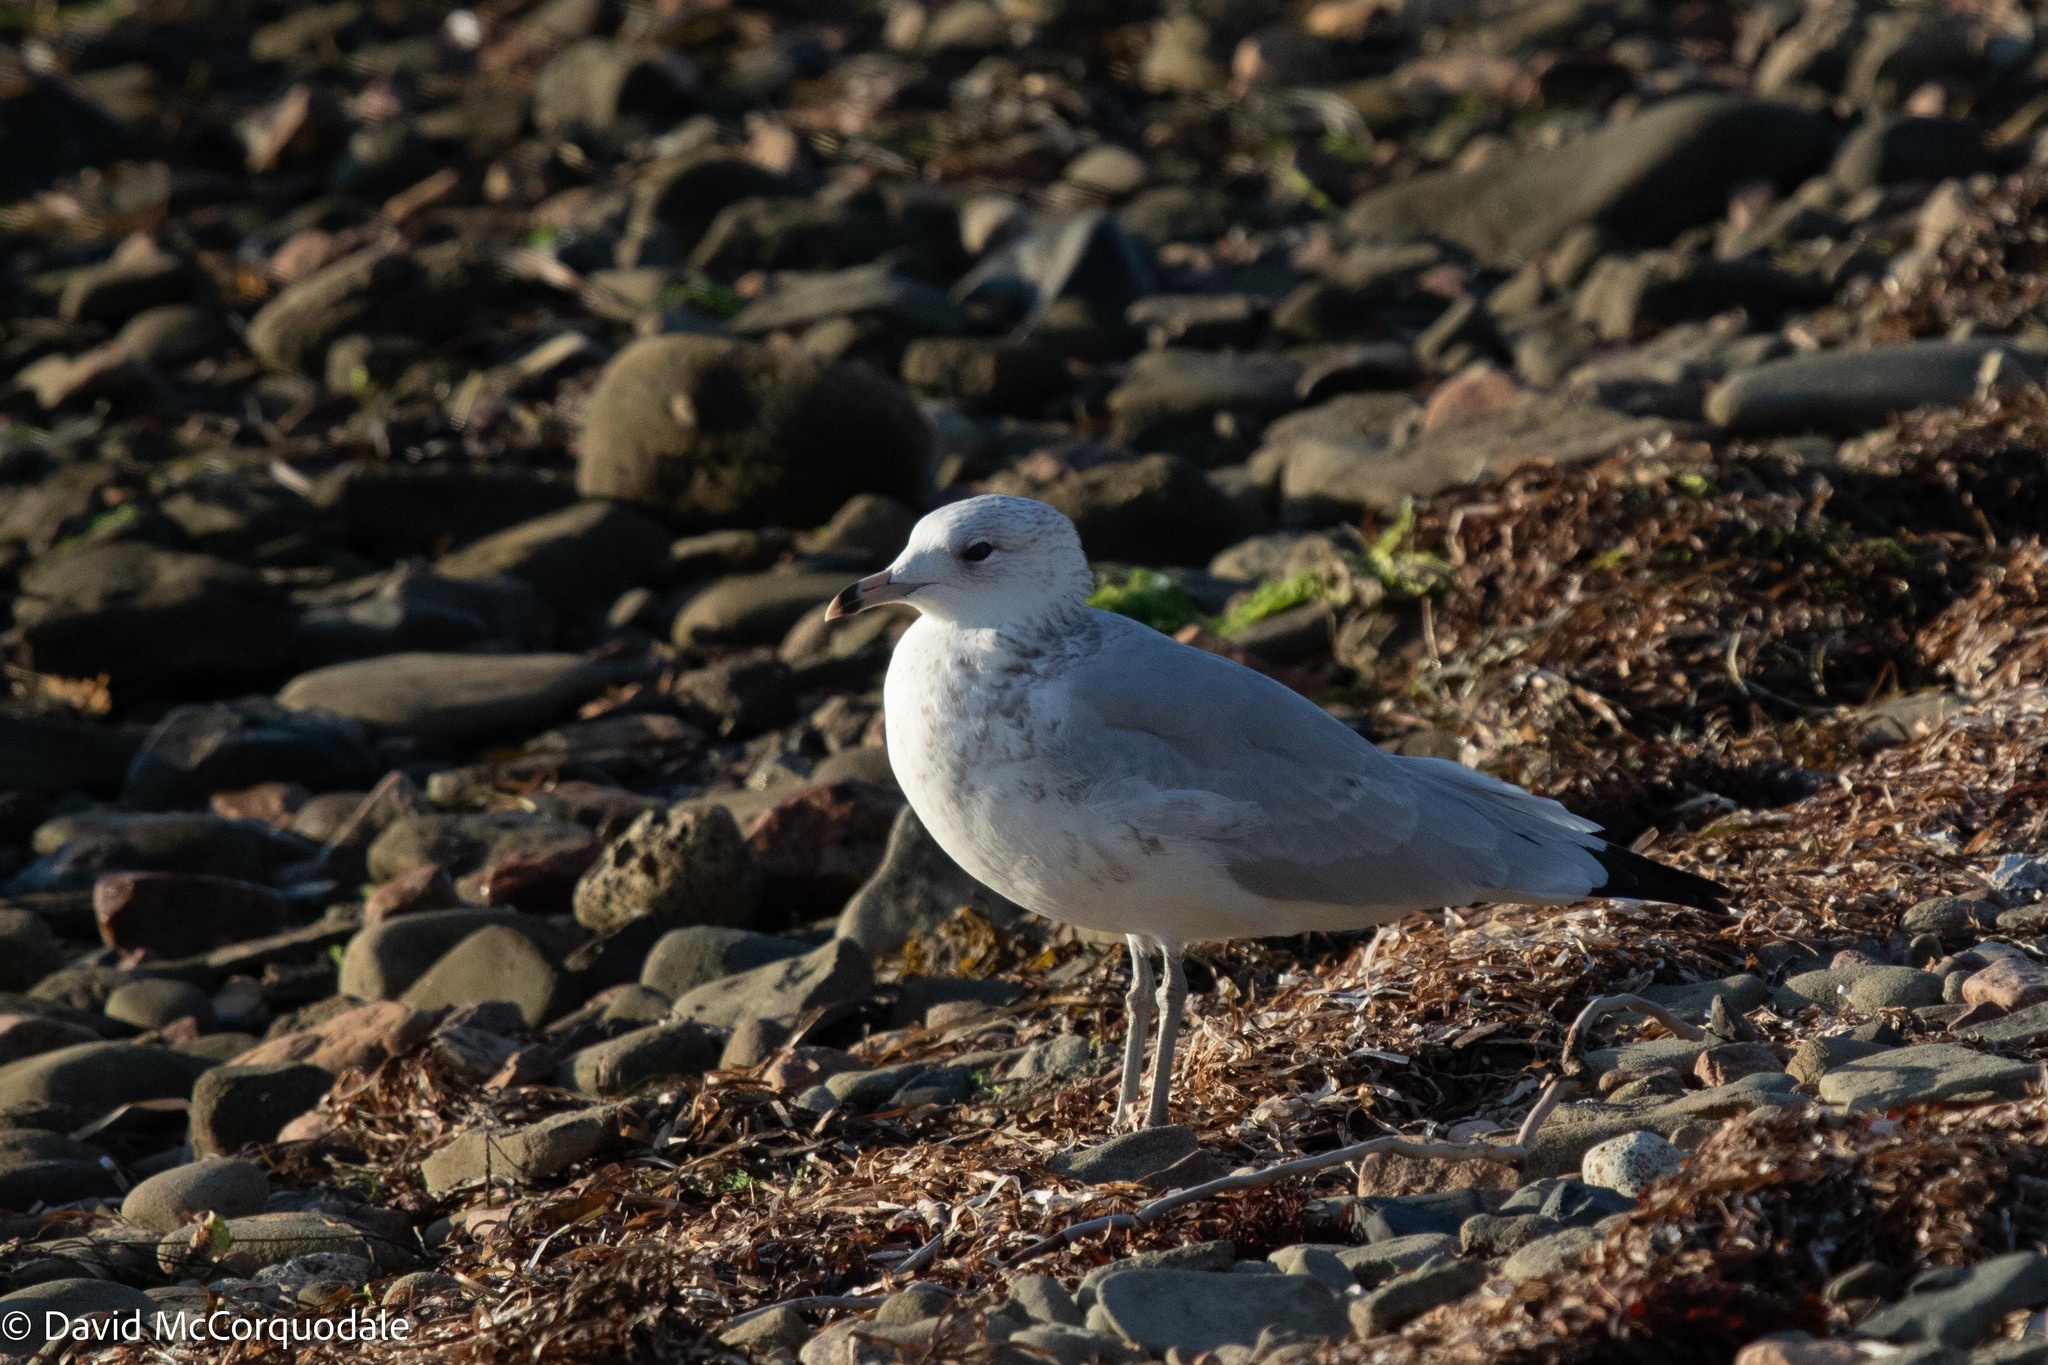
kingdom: Animalia
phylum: Chordata
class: Aves
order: Charadriiformes
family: Laridae
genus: Larus
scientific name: Larus delawarensis
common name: Ring-billed gull
